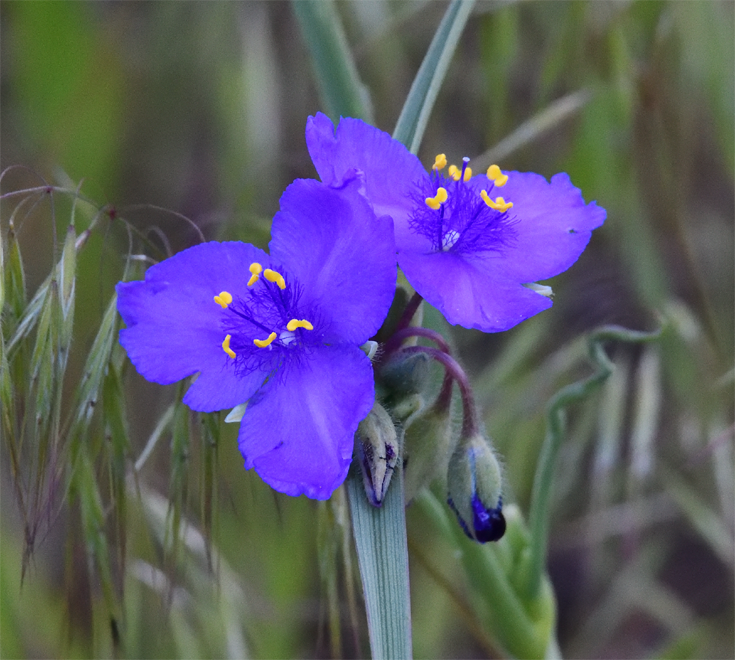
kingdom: Plantae
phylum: Tracheophyta
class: Liliopsida
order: Commelinales
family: Commelinaceae
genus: Tradescantia
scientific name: Tradescantia occidentalis
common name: Prairie spiderwort
